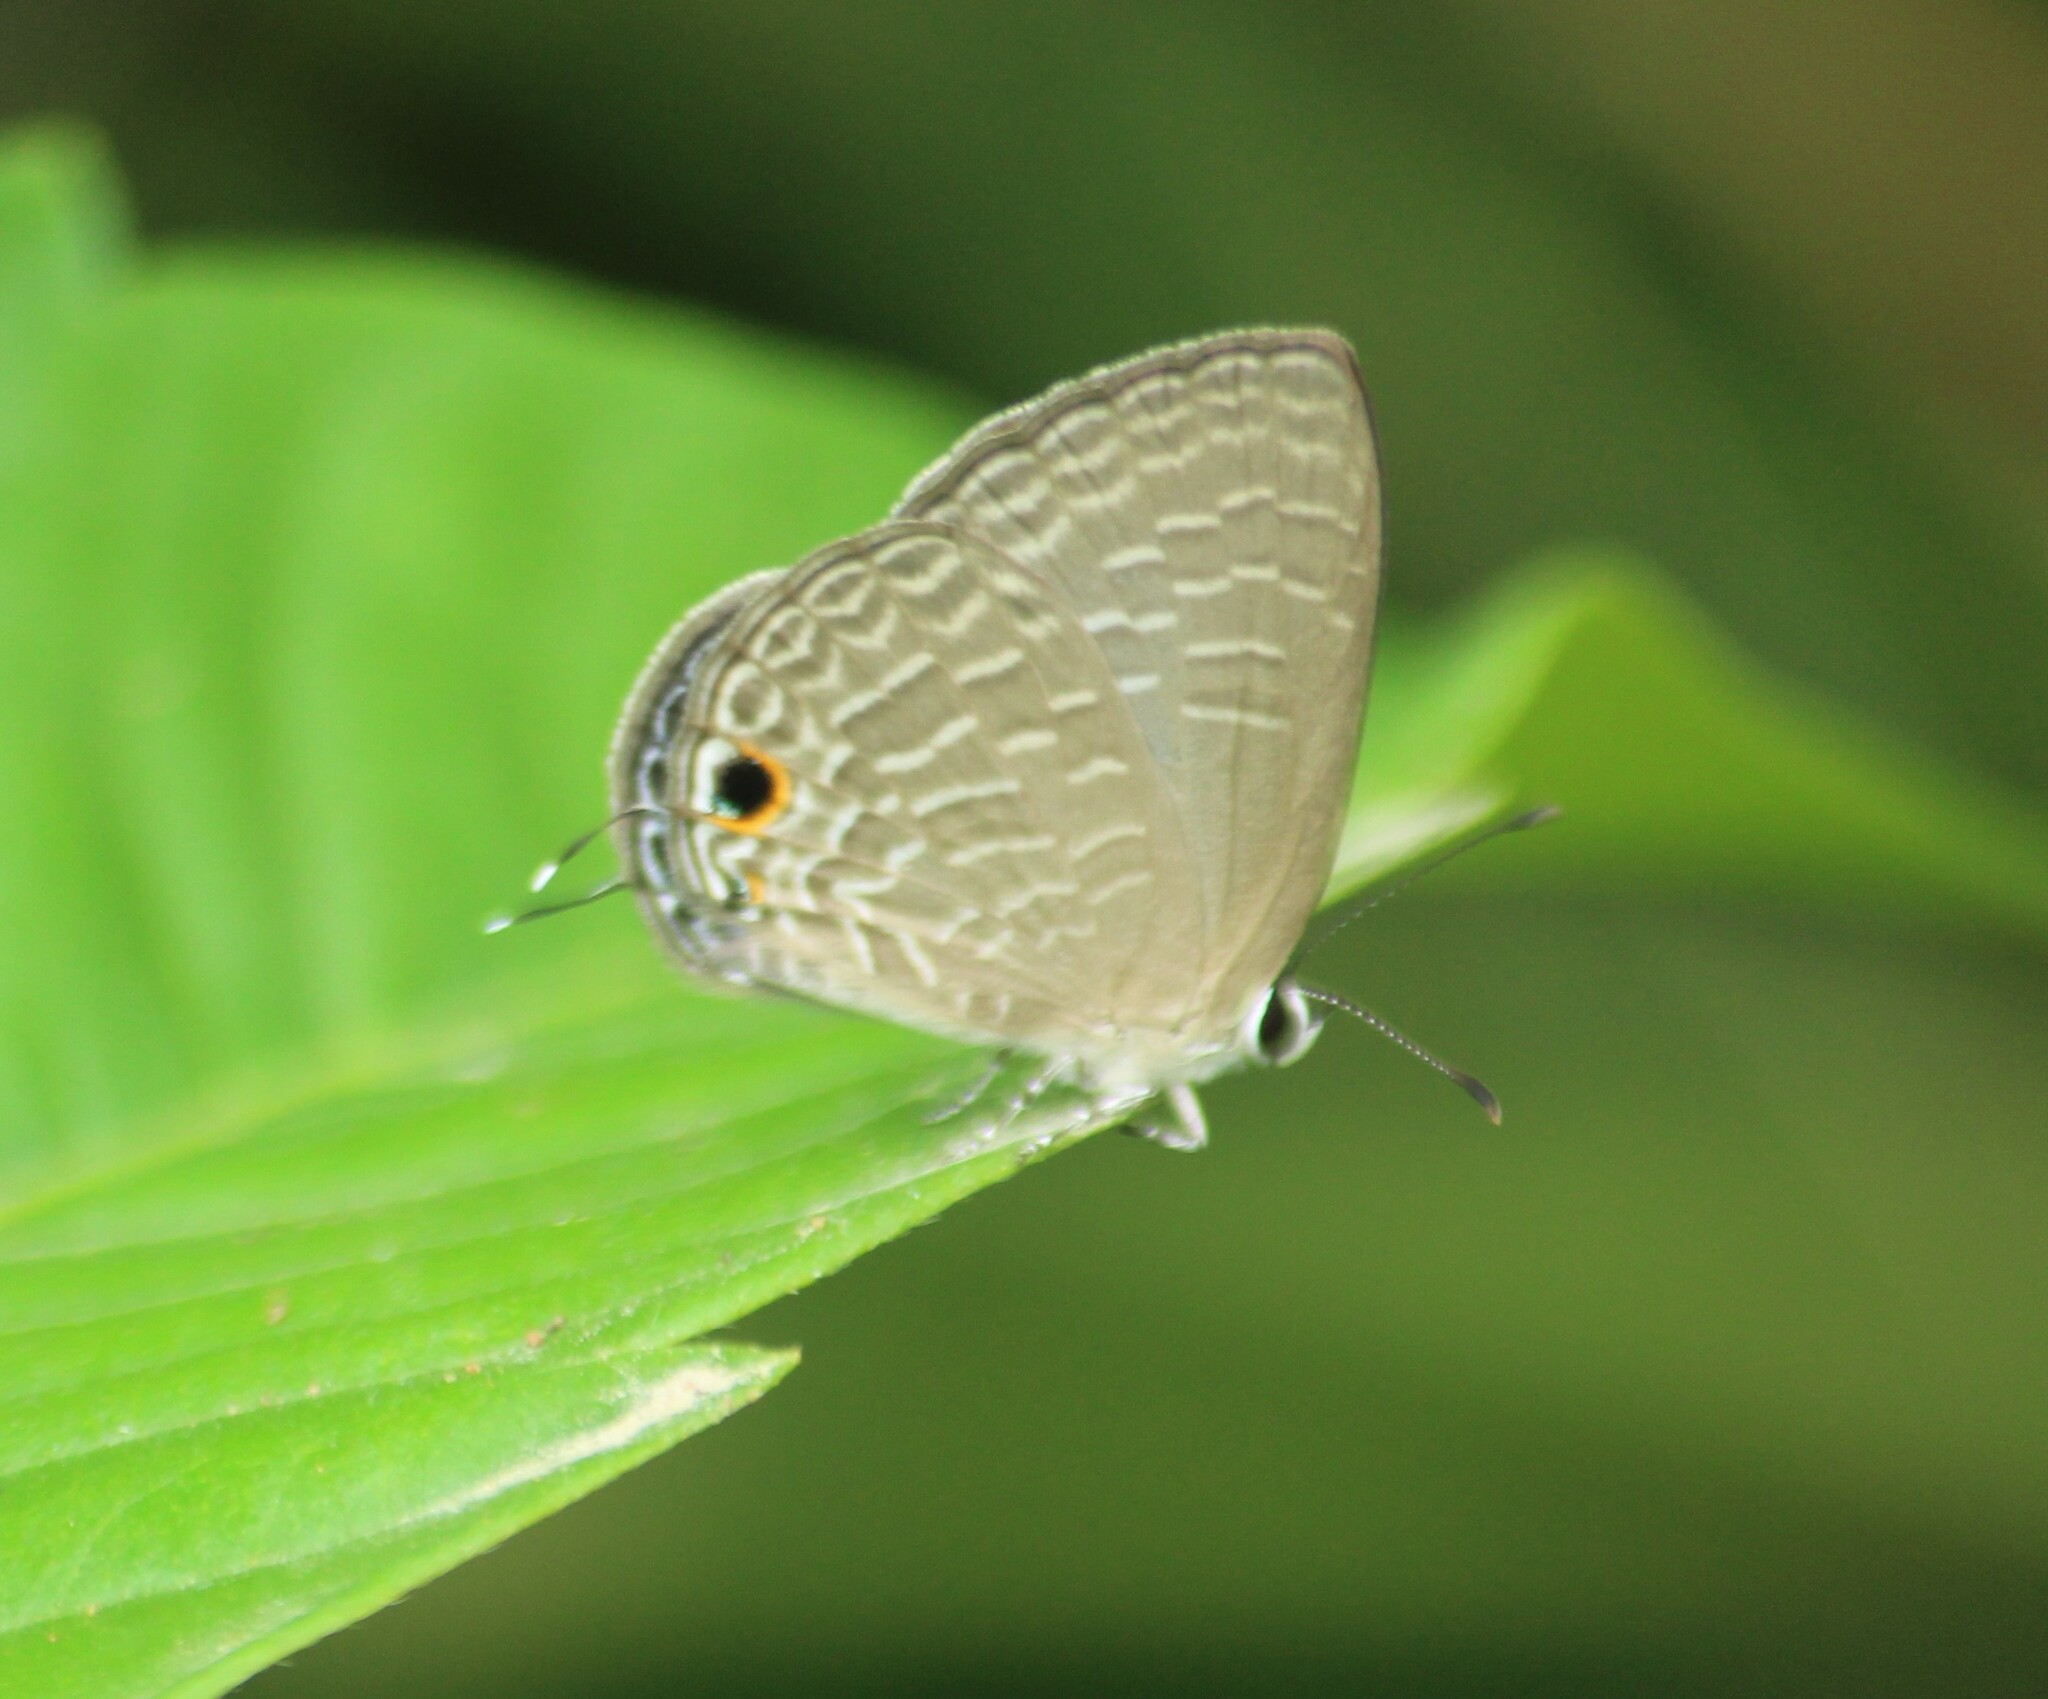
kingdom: Animalia
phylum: Arthropoda
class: Insecta
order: Lepidoptera
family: Lycaenidae
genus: Jamides
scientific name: Jamides bochus
